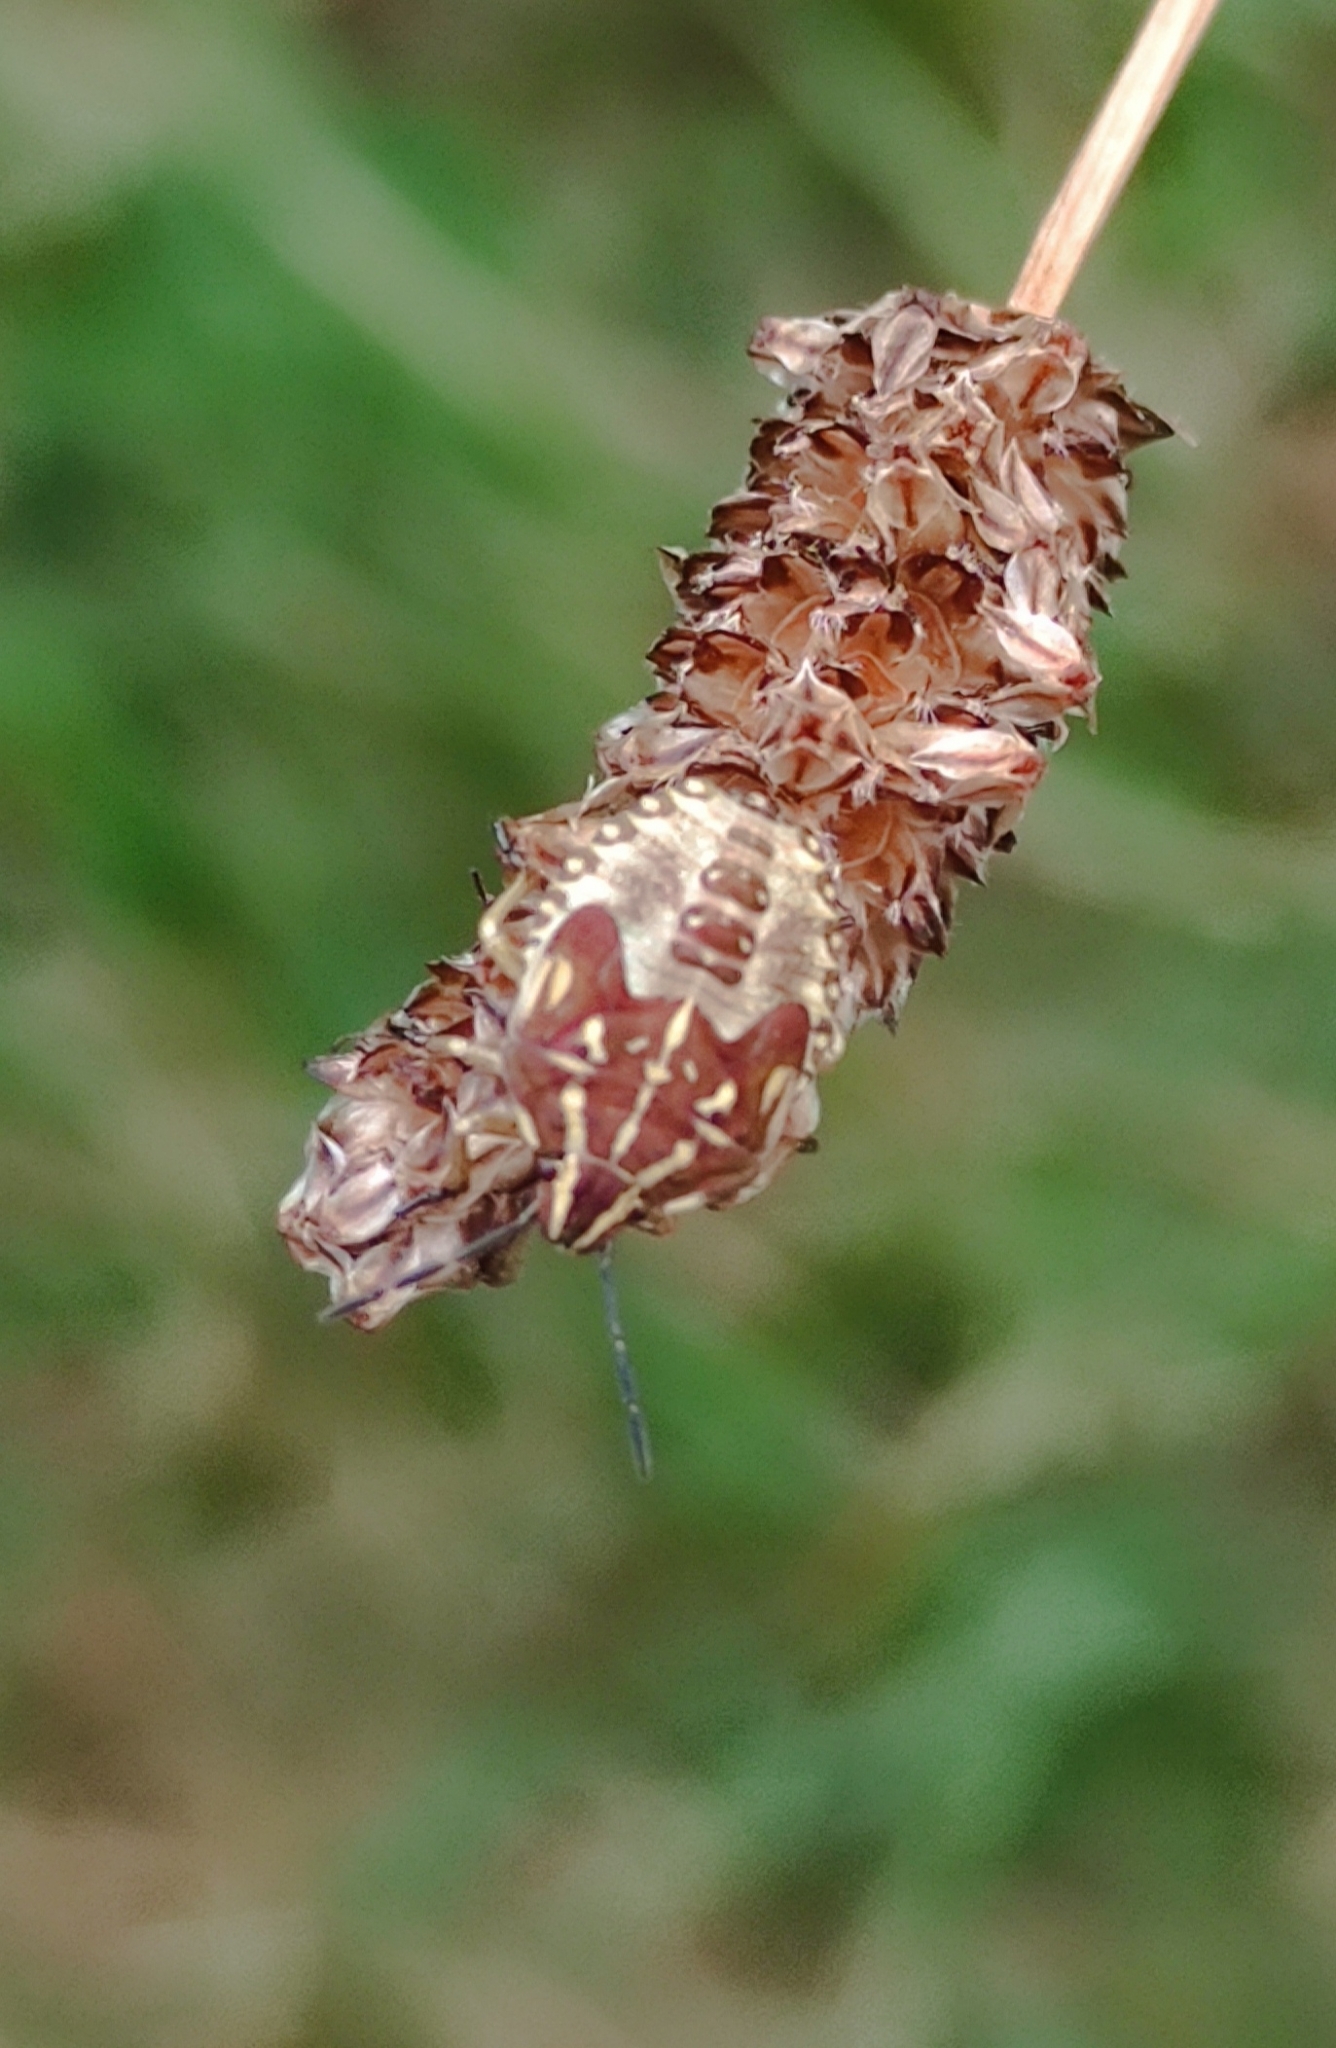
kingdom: Animalia
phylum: Arthropoda
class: Insecta
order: Hemiptera
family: Pentatomidae
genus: Carpocoris
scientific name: Carpocoris purpureipennis
